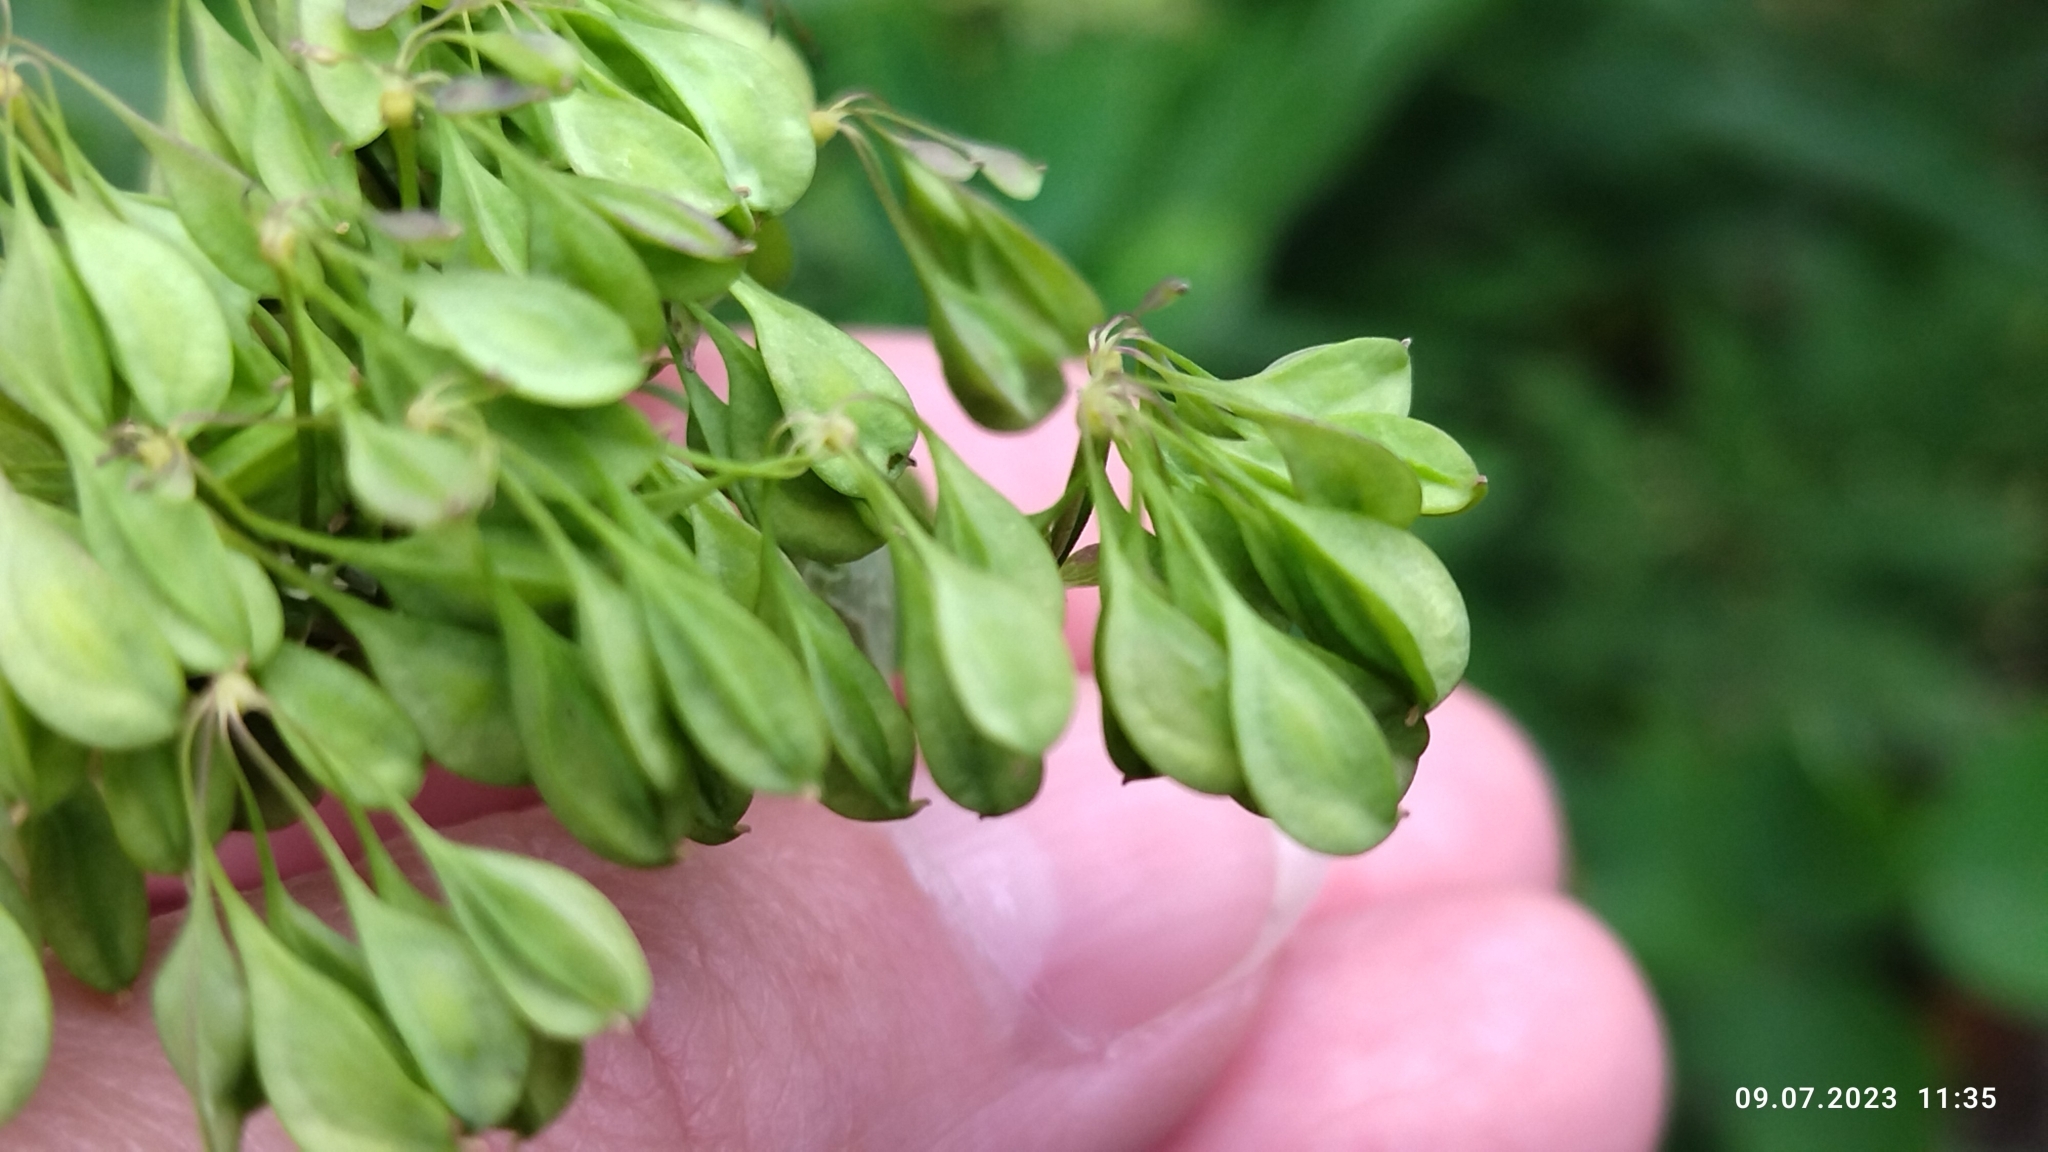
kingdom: Plantae
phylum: Tracheophyta
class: Magnoliopsida
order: Ranunculales
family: Ranunculaceae
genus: Thalictrum
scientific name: Thalictrum aquilegiifolium
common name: French meadow-rue
